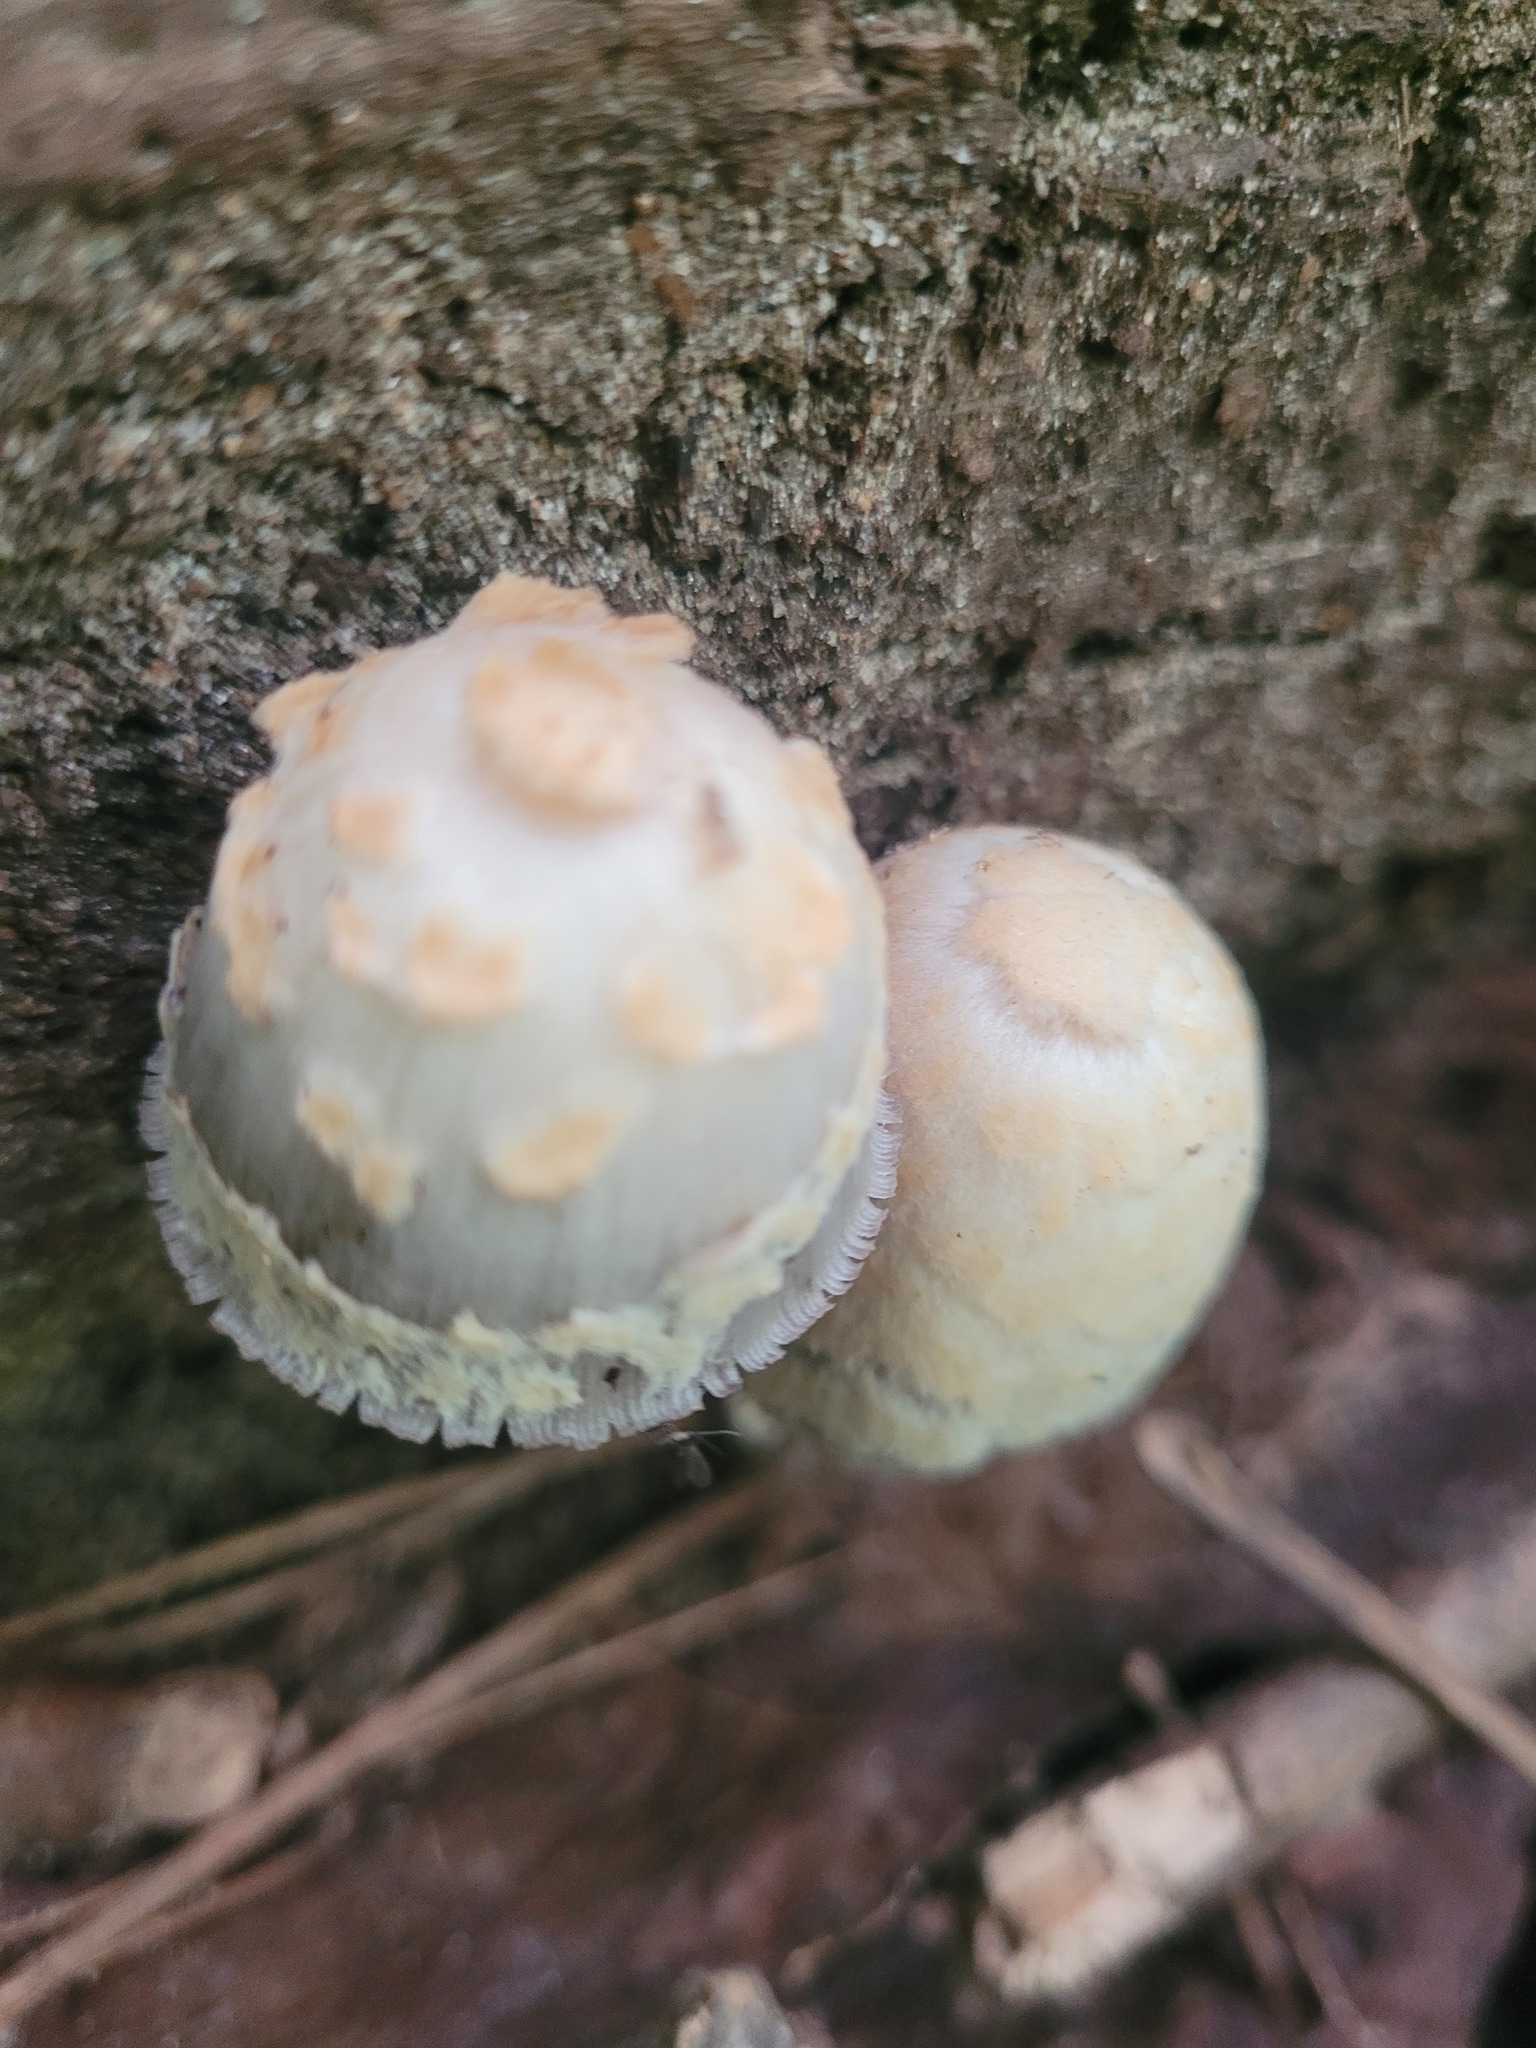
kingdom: Fungi
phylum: Basidiomycota
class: Agaricomycetes
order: Agaricales
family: Psathyrellaceae
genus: Coprinopsis
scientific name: Coprinopsis variegata
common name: Scaly ink cap
